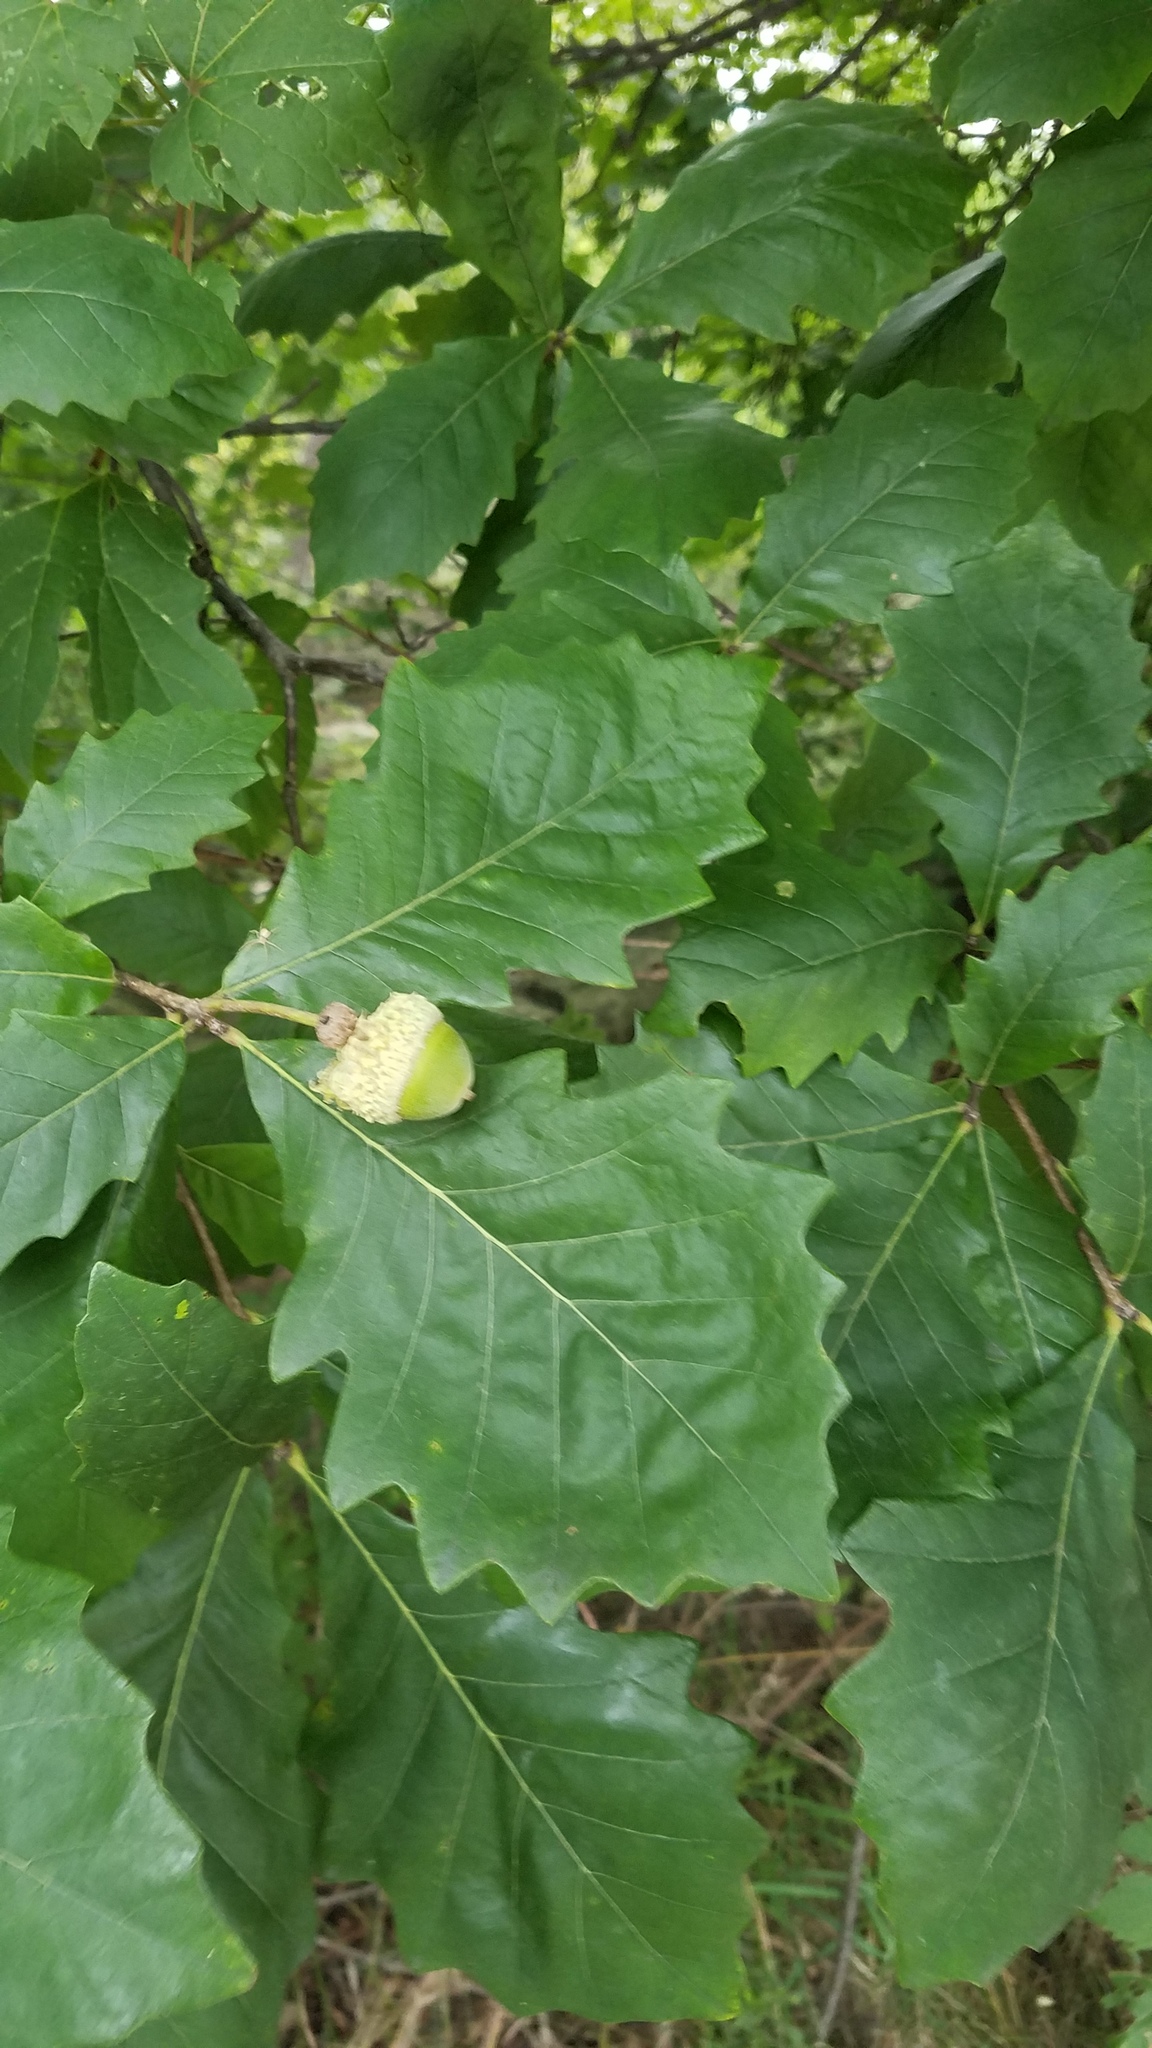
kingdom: Plantae
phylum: Tracheophyta
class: Magnoliopsida
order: Fagales
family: Fagaceae
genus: Quercus
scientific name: Quercus bicolor
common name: Swamp white oak
